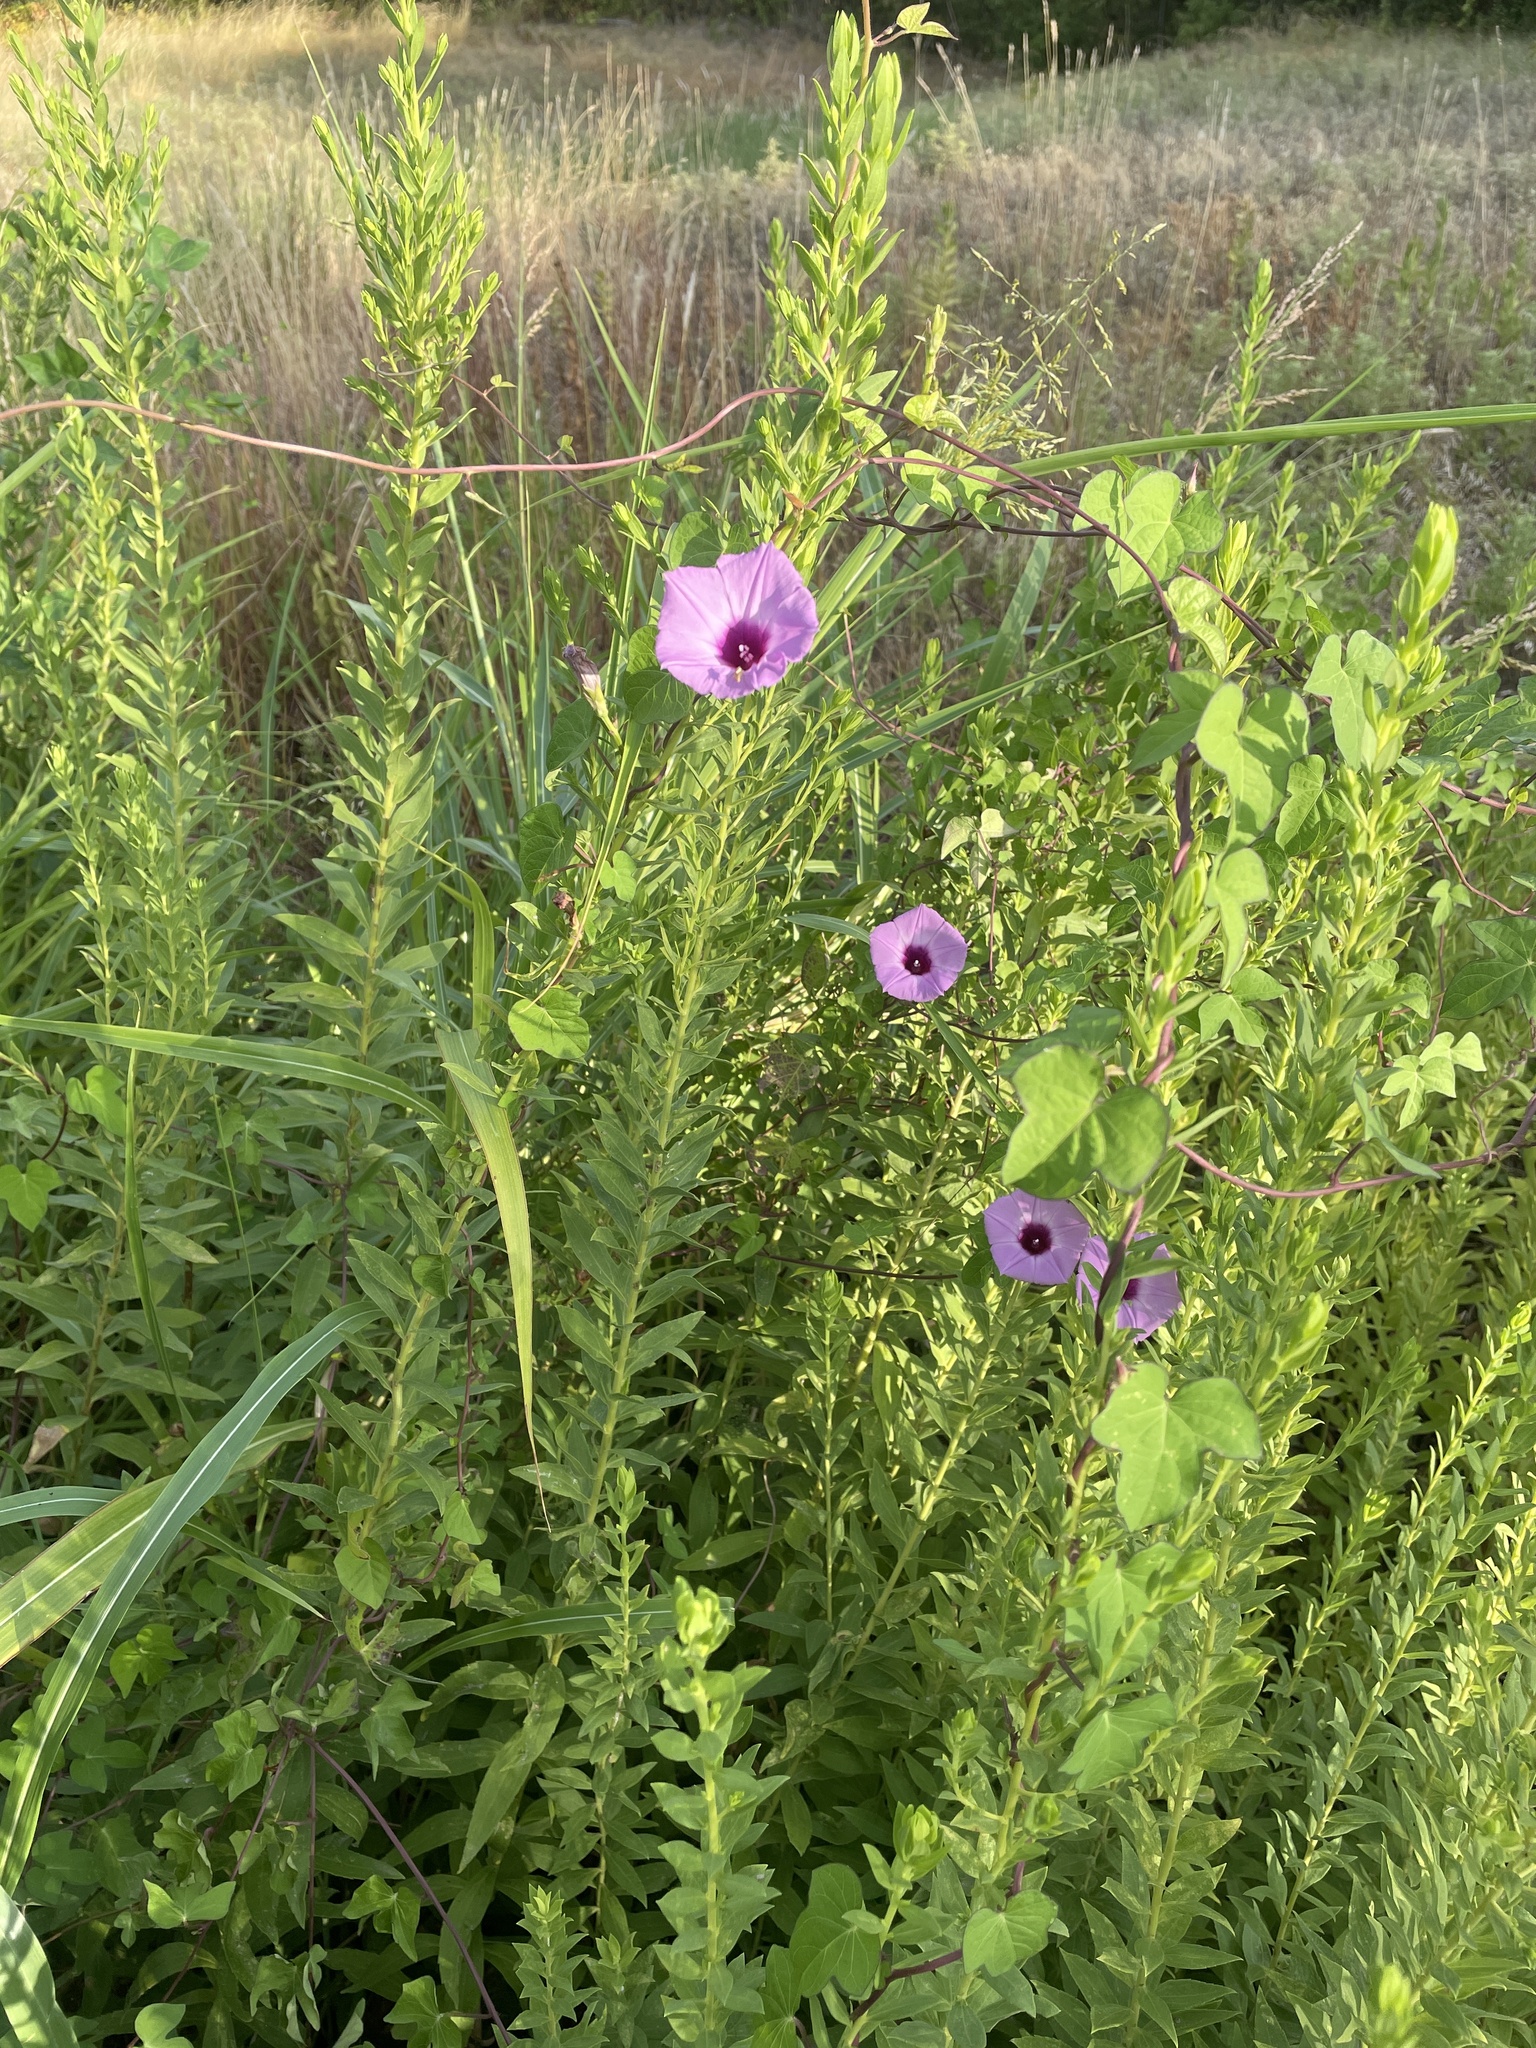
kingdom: Plantae
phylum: Tracheophyta
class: Magnoliopsida
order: Solanales
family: Convolvulaceae
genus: Ipomoea
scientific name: Ipomoea cordatotriloba
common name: Cotton morning glory
